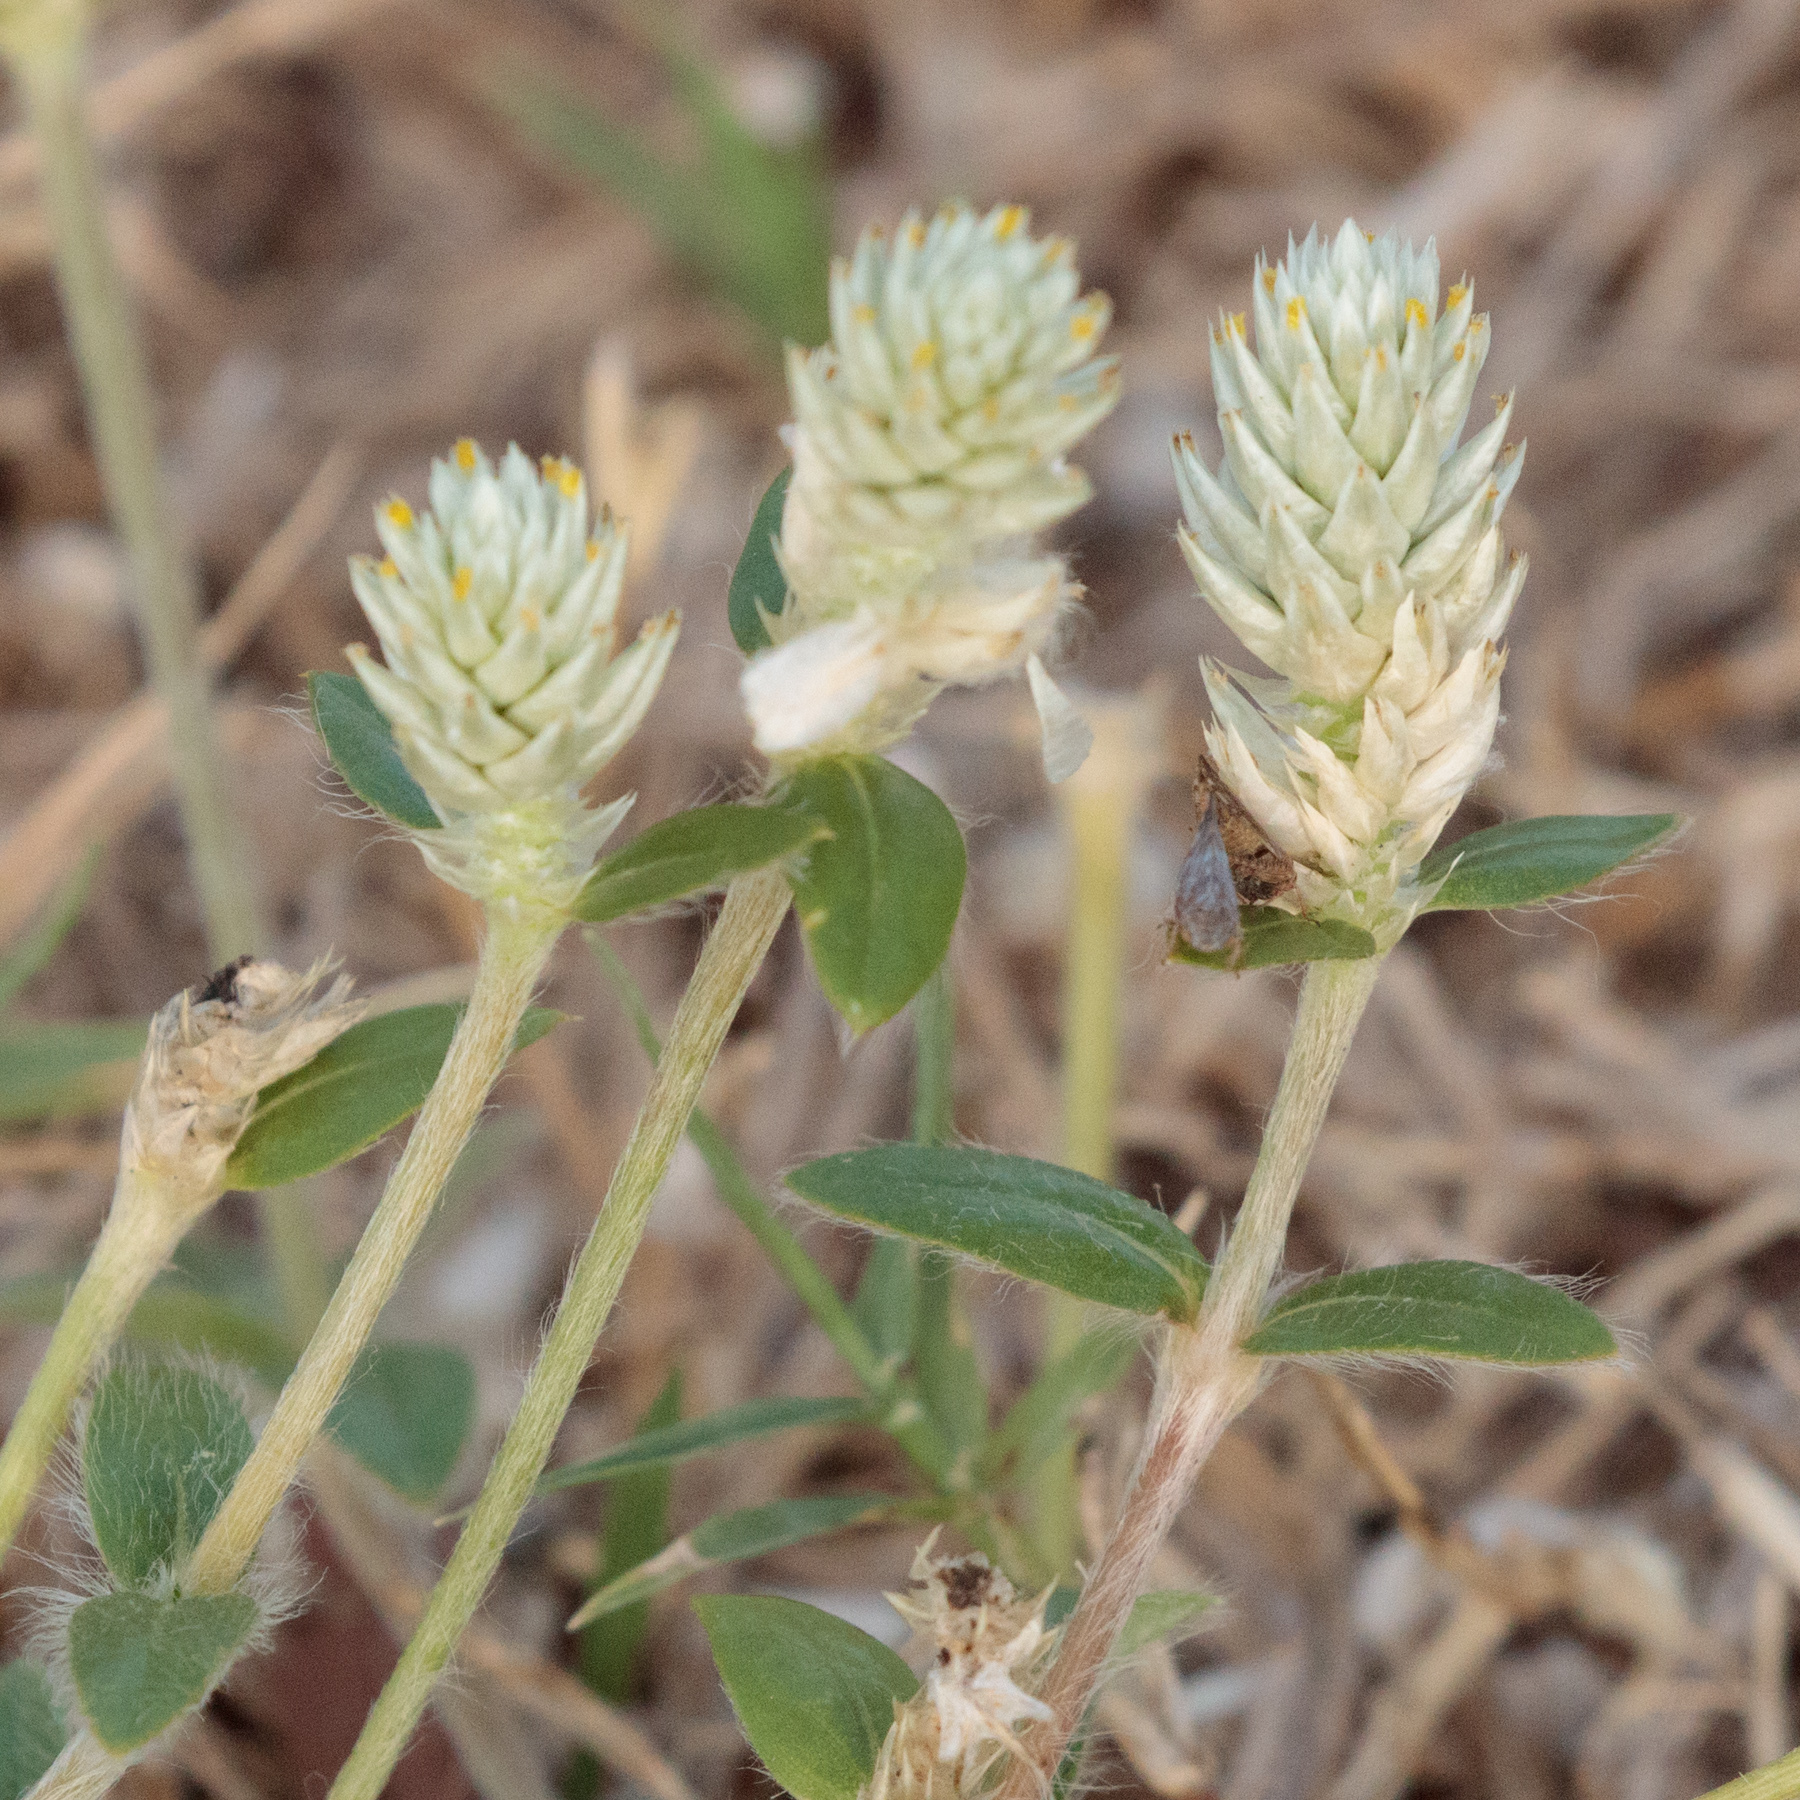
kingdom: Plantae
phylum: Tracheophyta
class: Magnoliopsida
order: Caryophyllales
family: Amaranthaceae
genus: Gomphrena
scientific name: Gomphrena serrata
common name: Arrasa con todo
